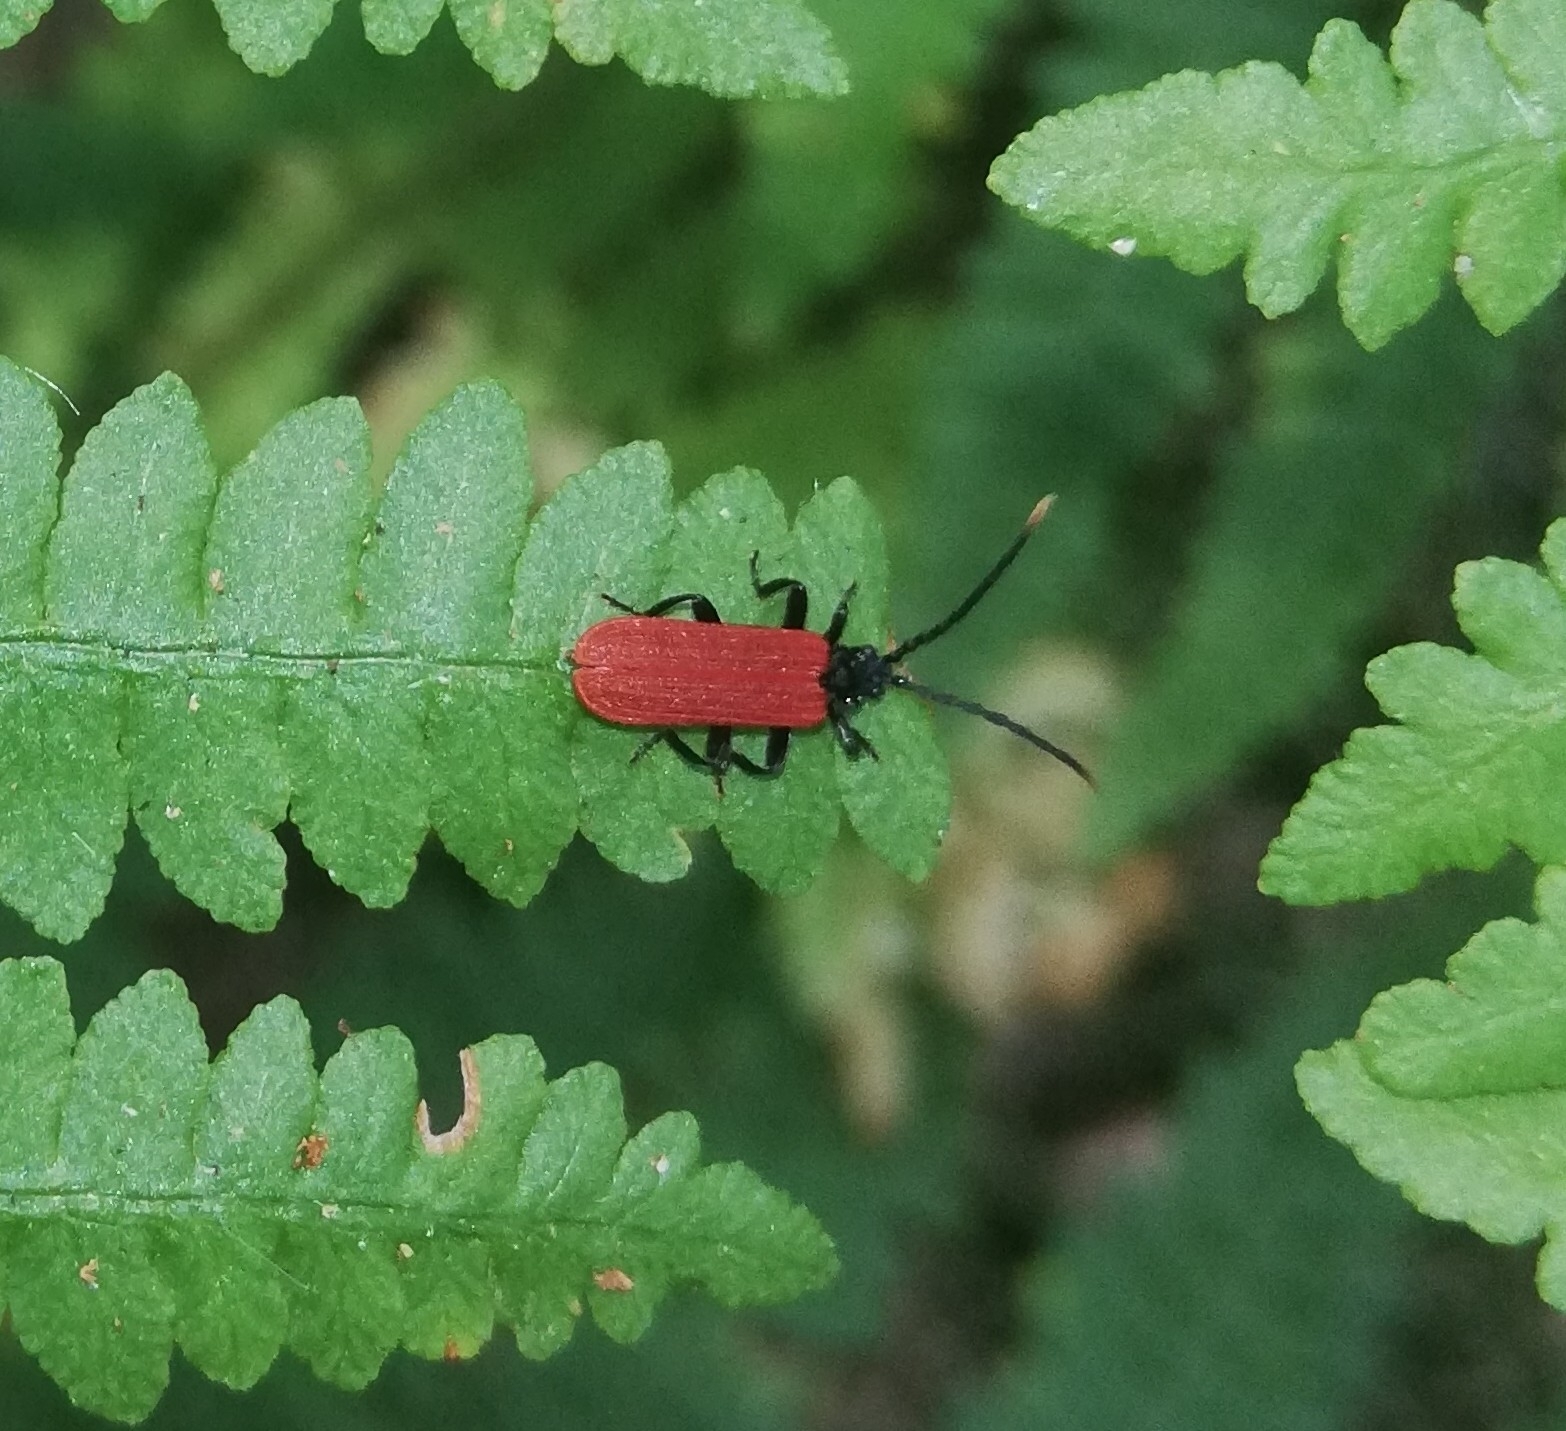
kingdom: Animalia
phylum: Arthropoda
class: Insecta
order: Coleoptera
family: Lycidae
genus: Platycis
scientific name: Platycis minutus
